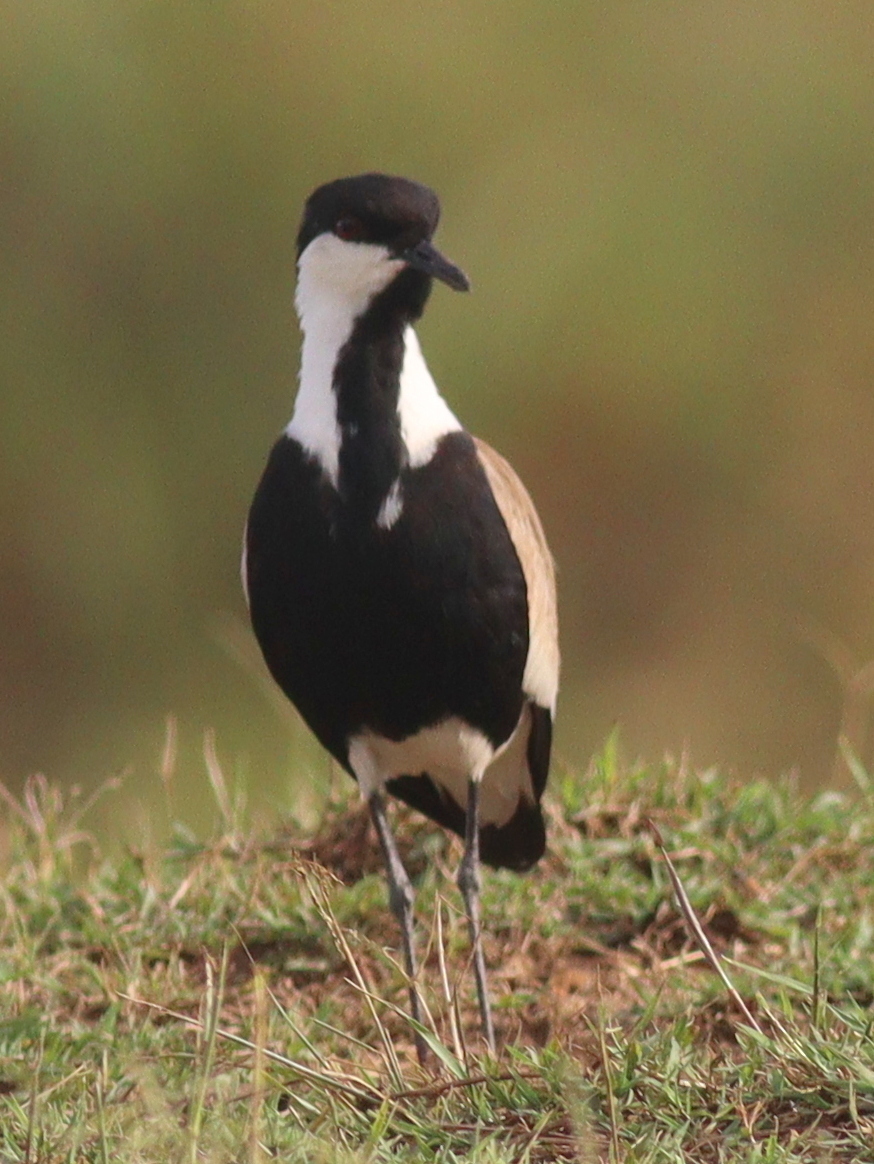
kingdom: Animalia
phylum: Chordata
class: Aves
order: Charadriiformes
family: Charadriidae
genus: Vanellus
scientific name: Vanellus spinosus
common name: Spur-winged lapwing
